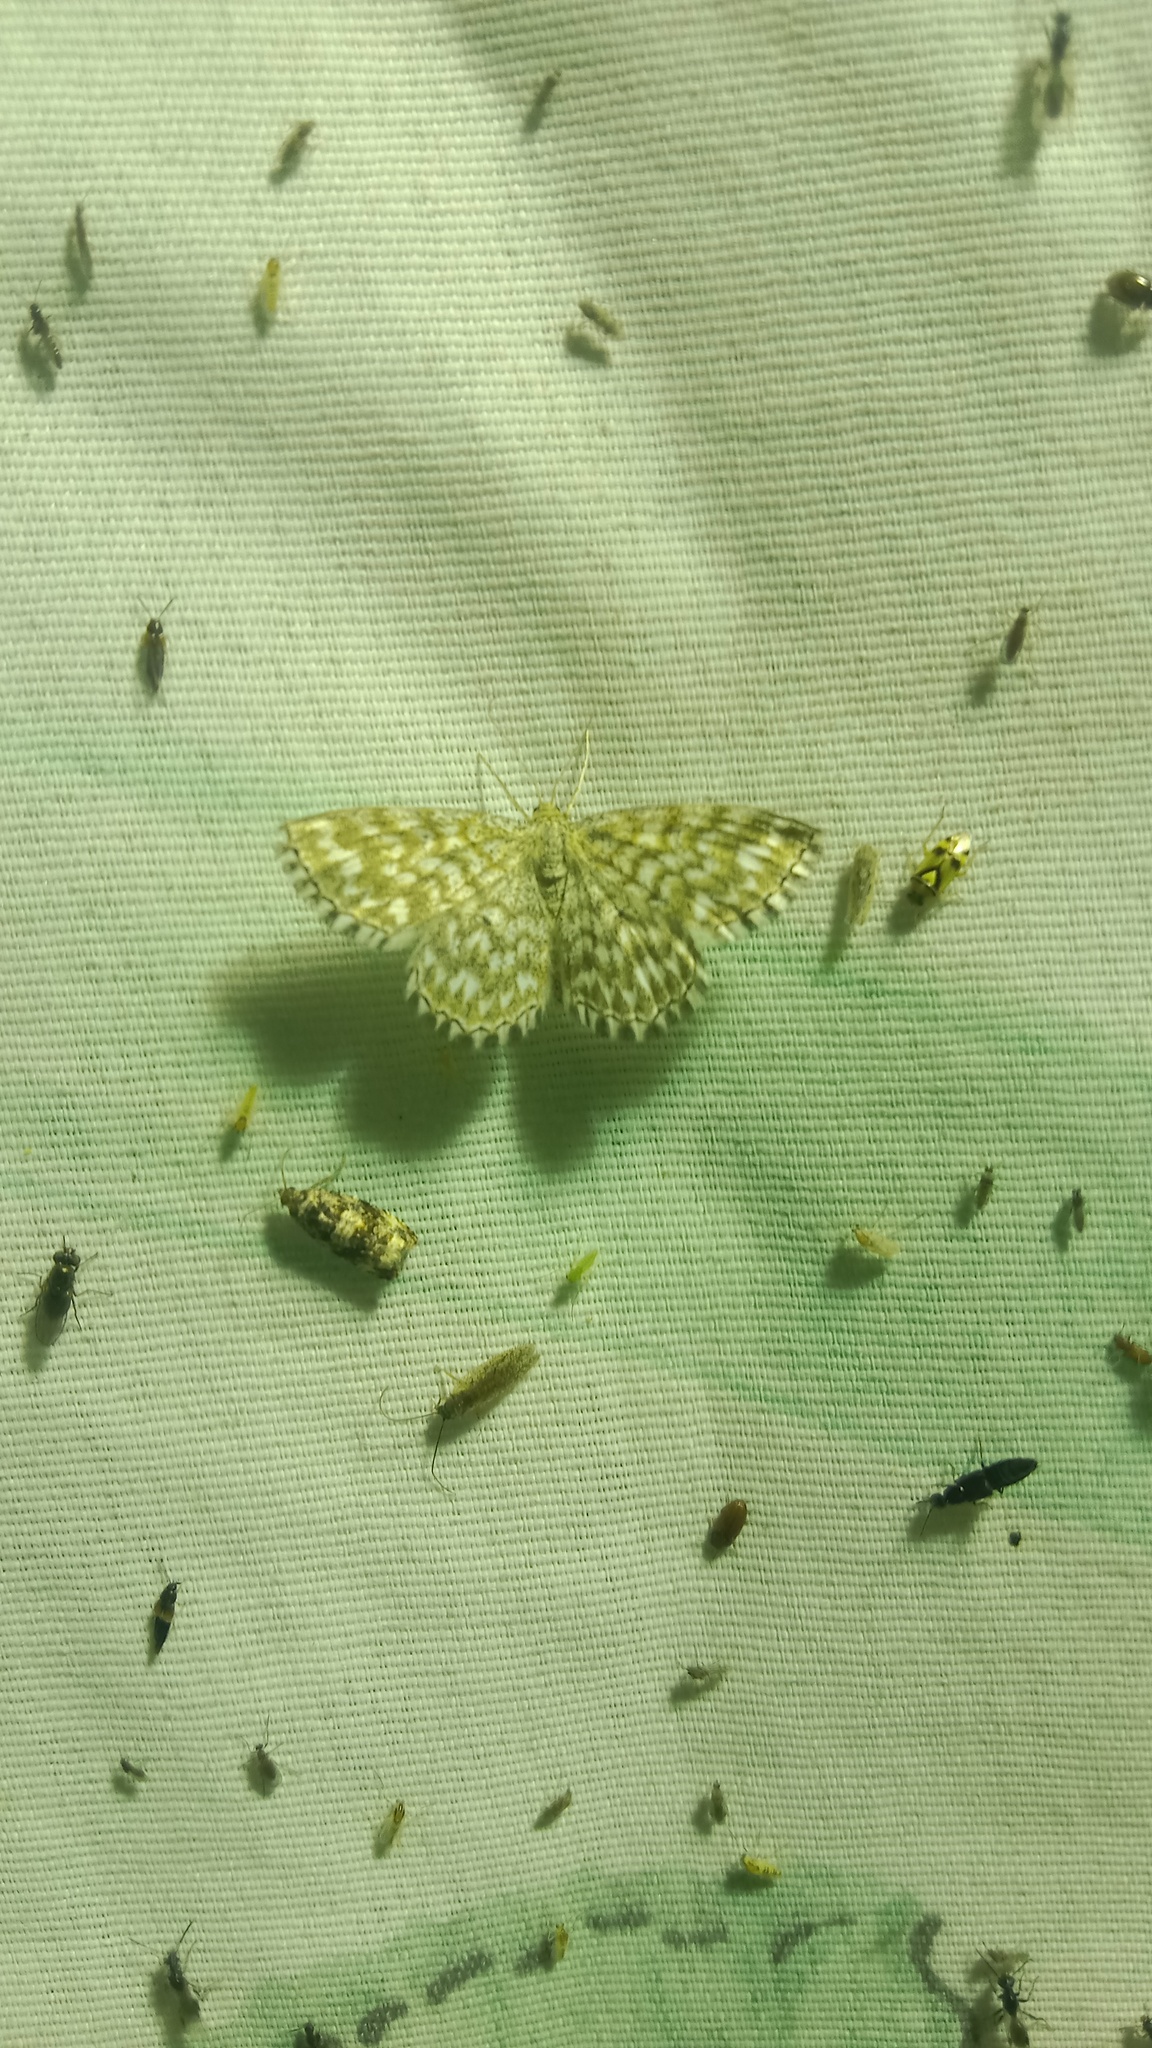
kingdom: Animalia
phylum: Arthropoda
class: Insecta
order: Lepidoptera
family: Geometridae
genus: Scopula
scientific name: Scopula immorata
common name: Lewes wave
